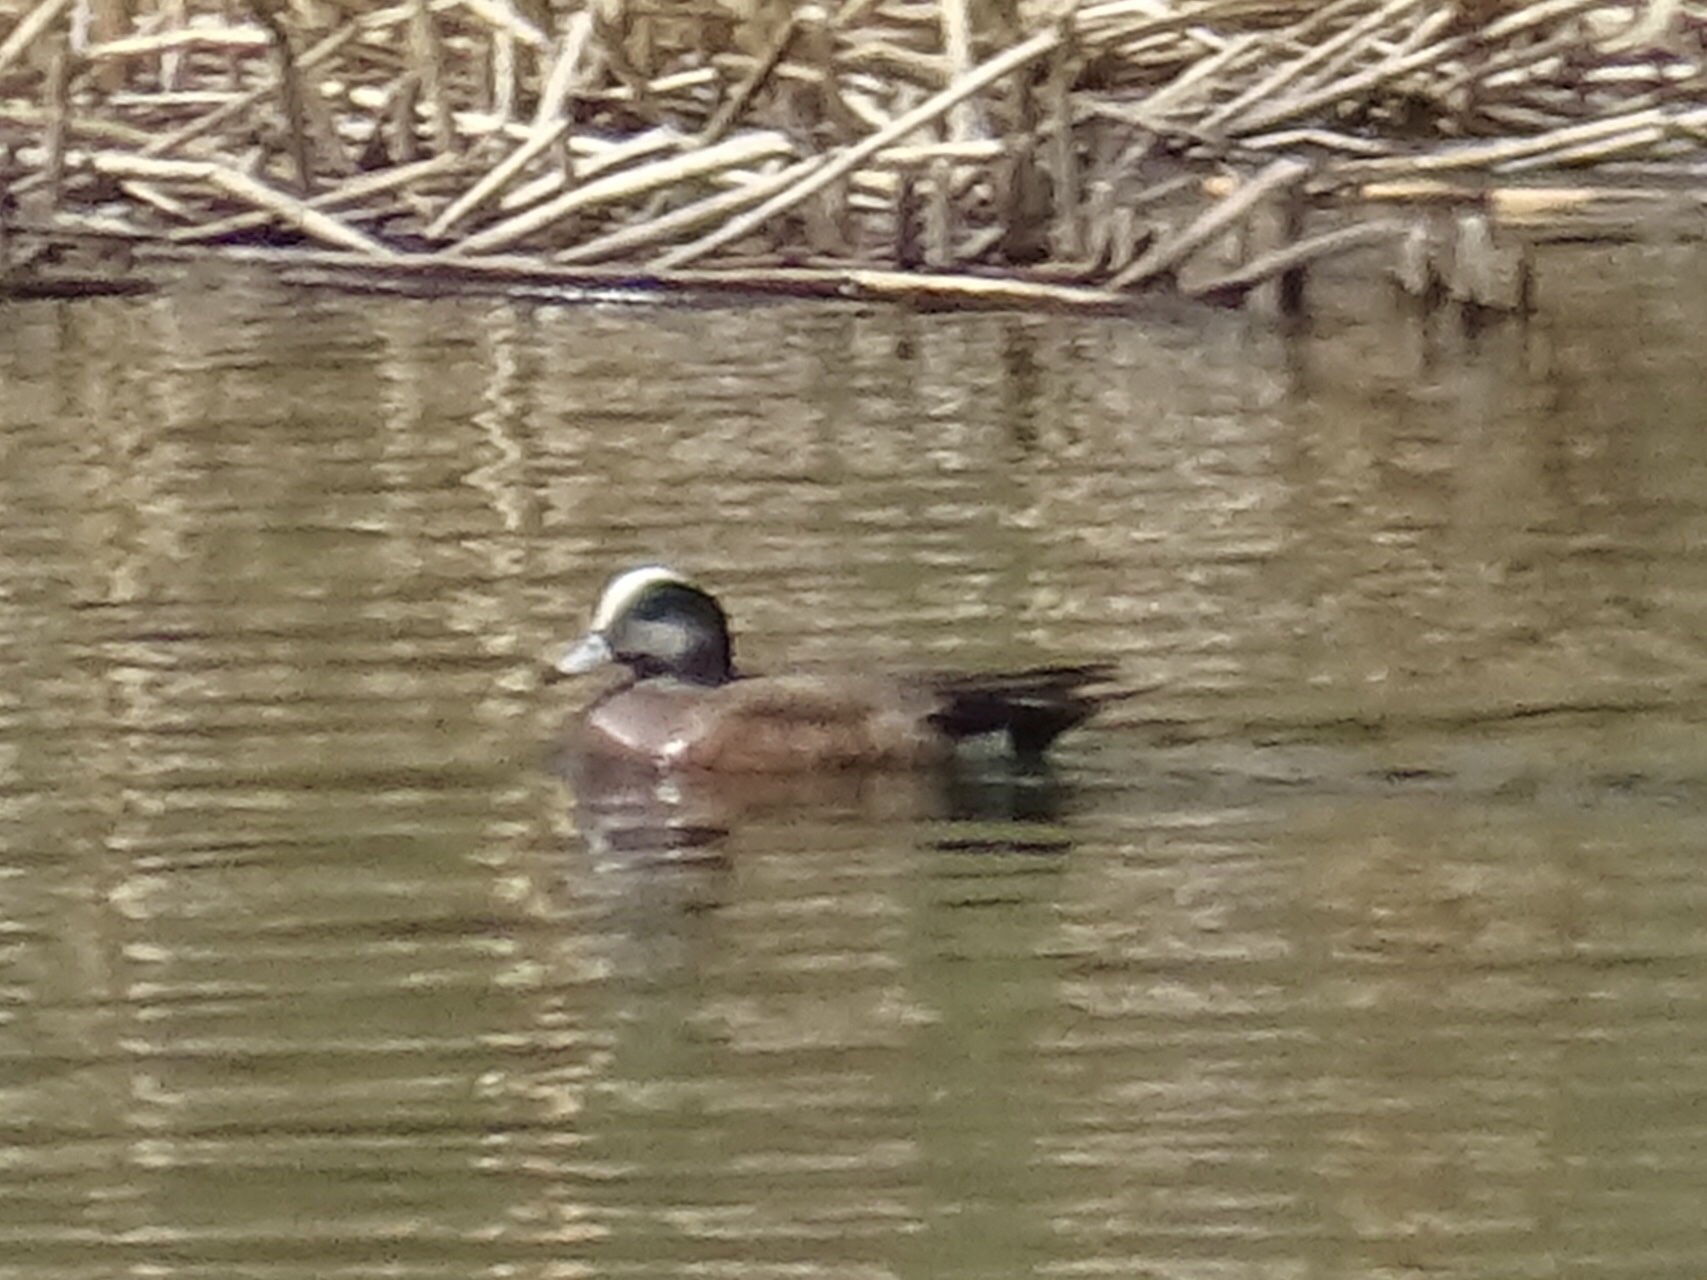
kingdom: Animalia
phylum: Chordata
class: Aves
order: Anseriformes
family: Anatidae
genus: Mareca
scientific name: Mareca americana
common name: American wigeon
